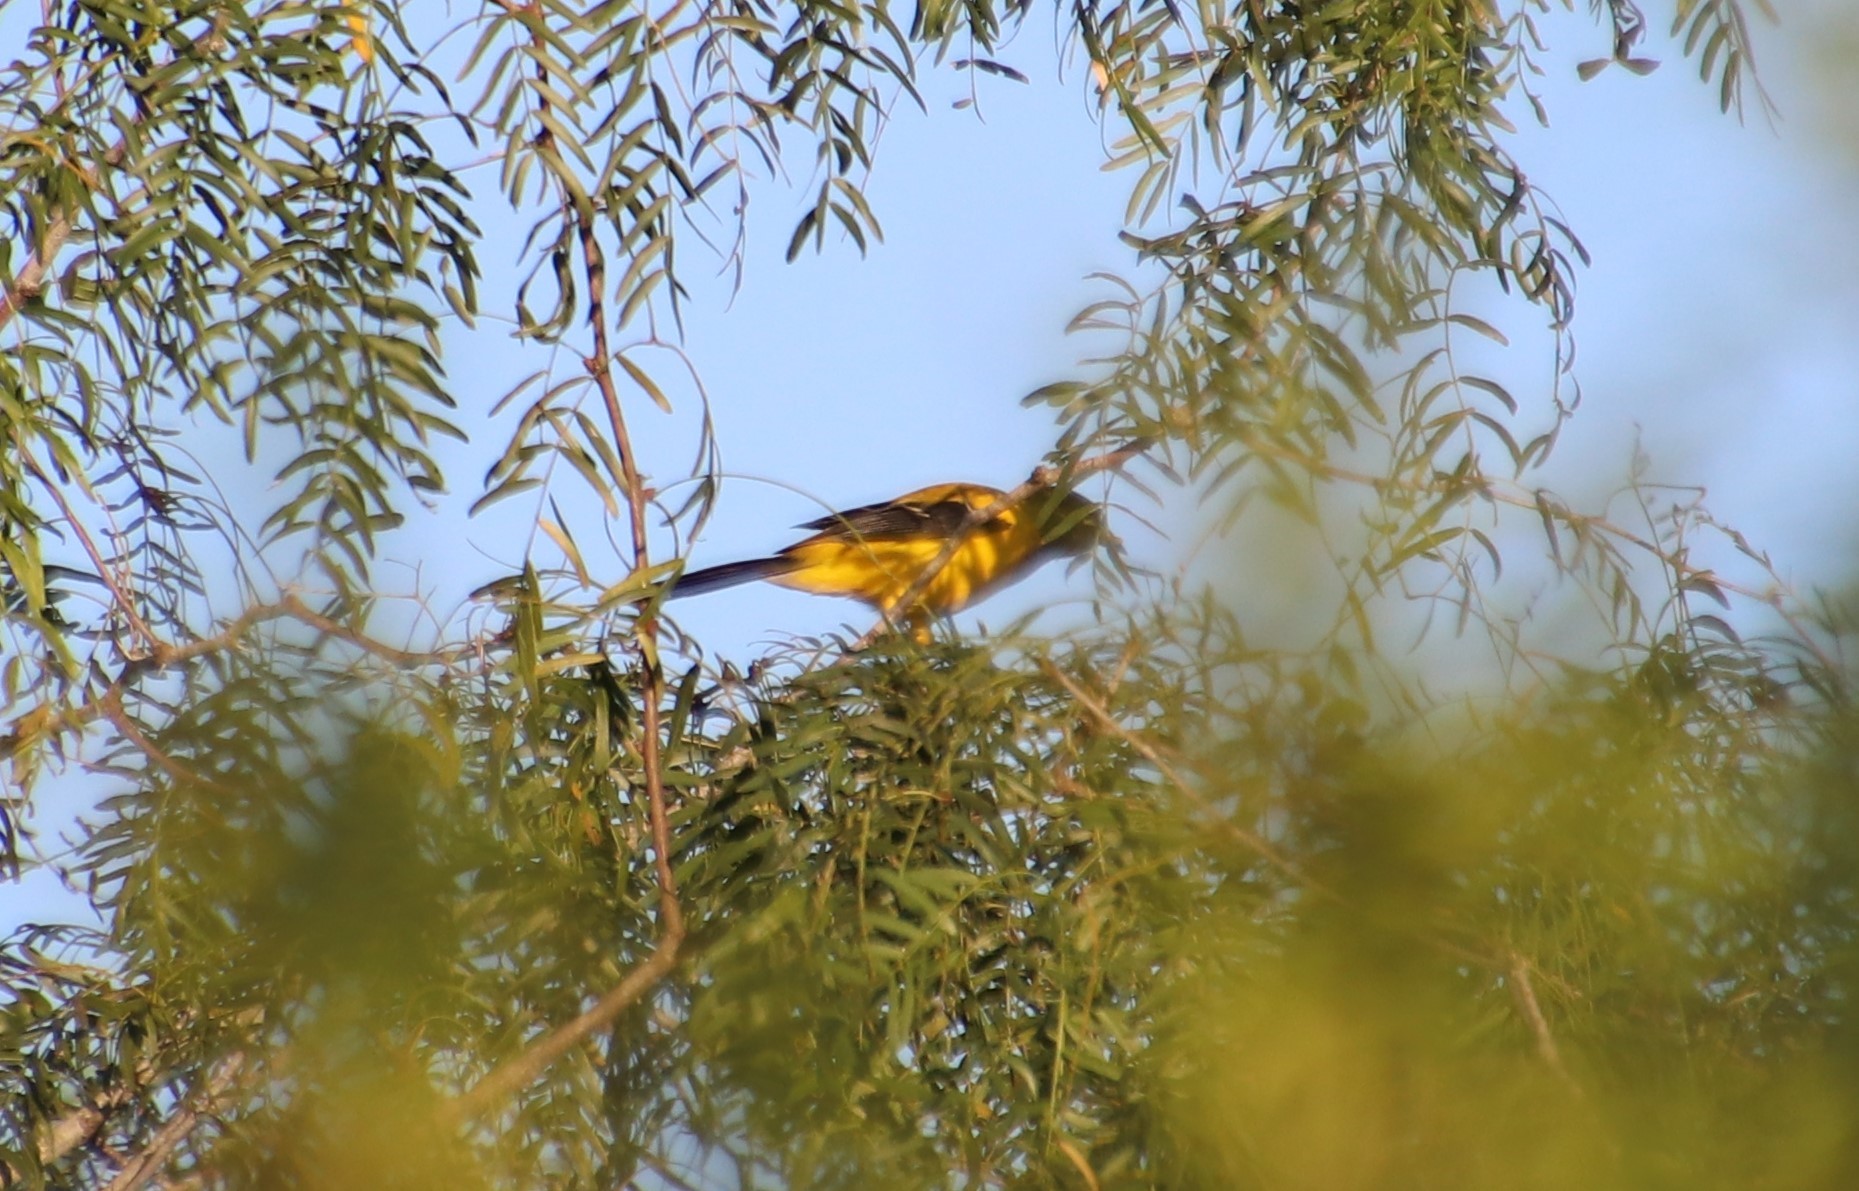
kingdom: Animalia
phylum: Chordata
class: Aves
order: Passeriformes
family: Icteridae
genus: Icterus
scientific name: Icterus graduacauda
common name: Audubon's oriole
